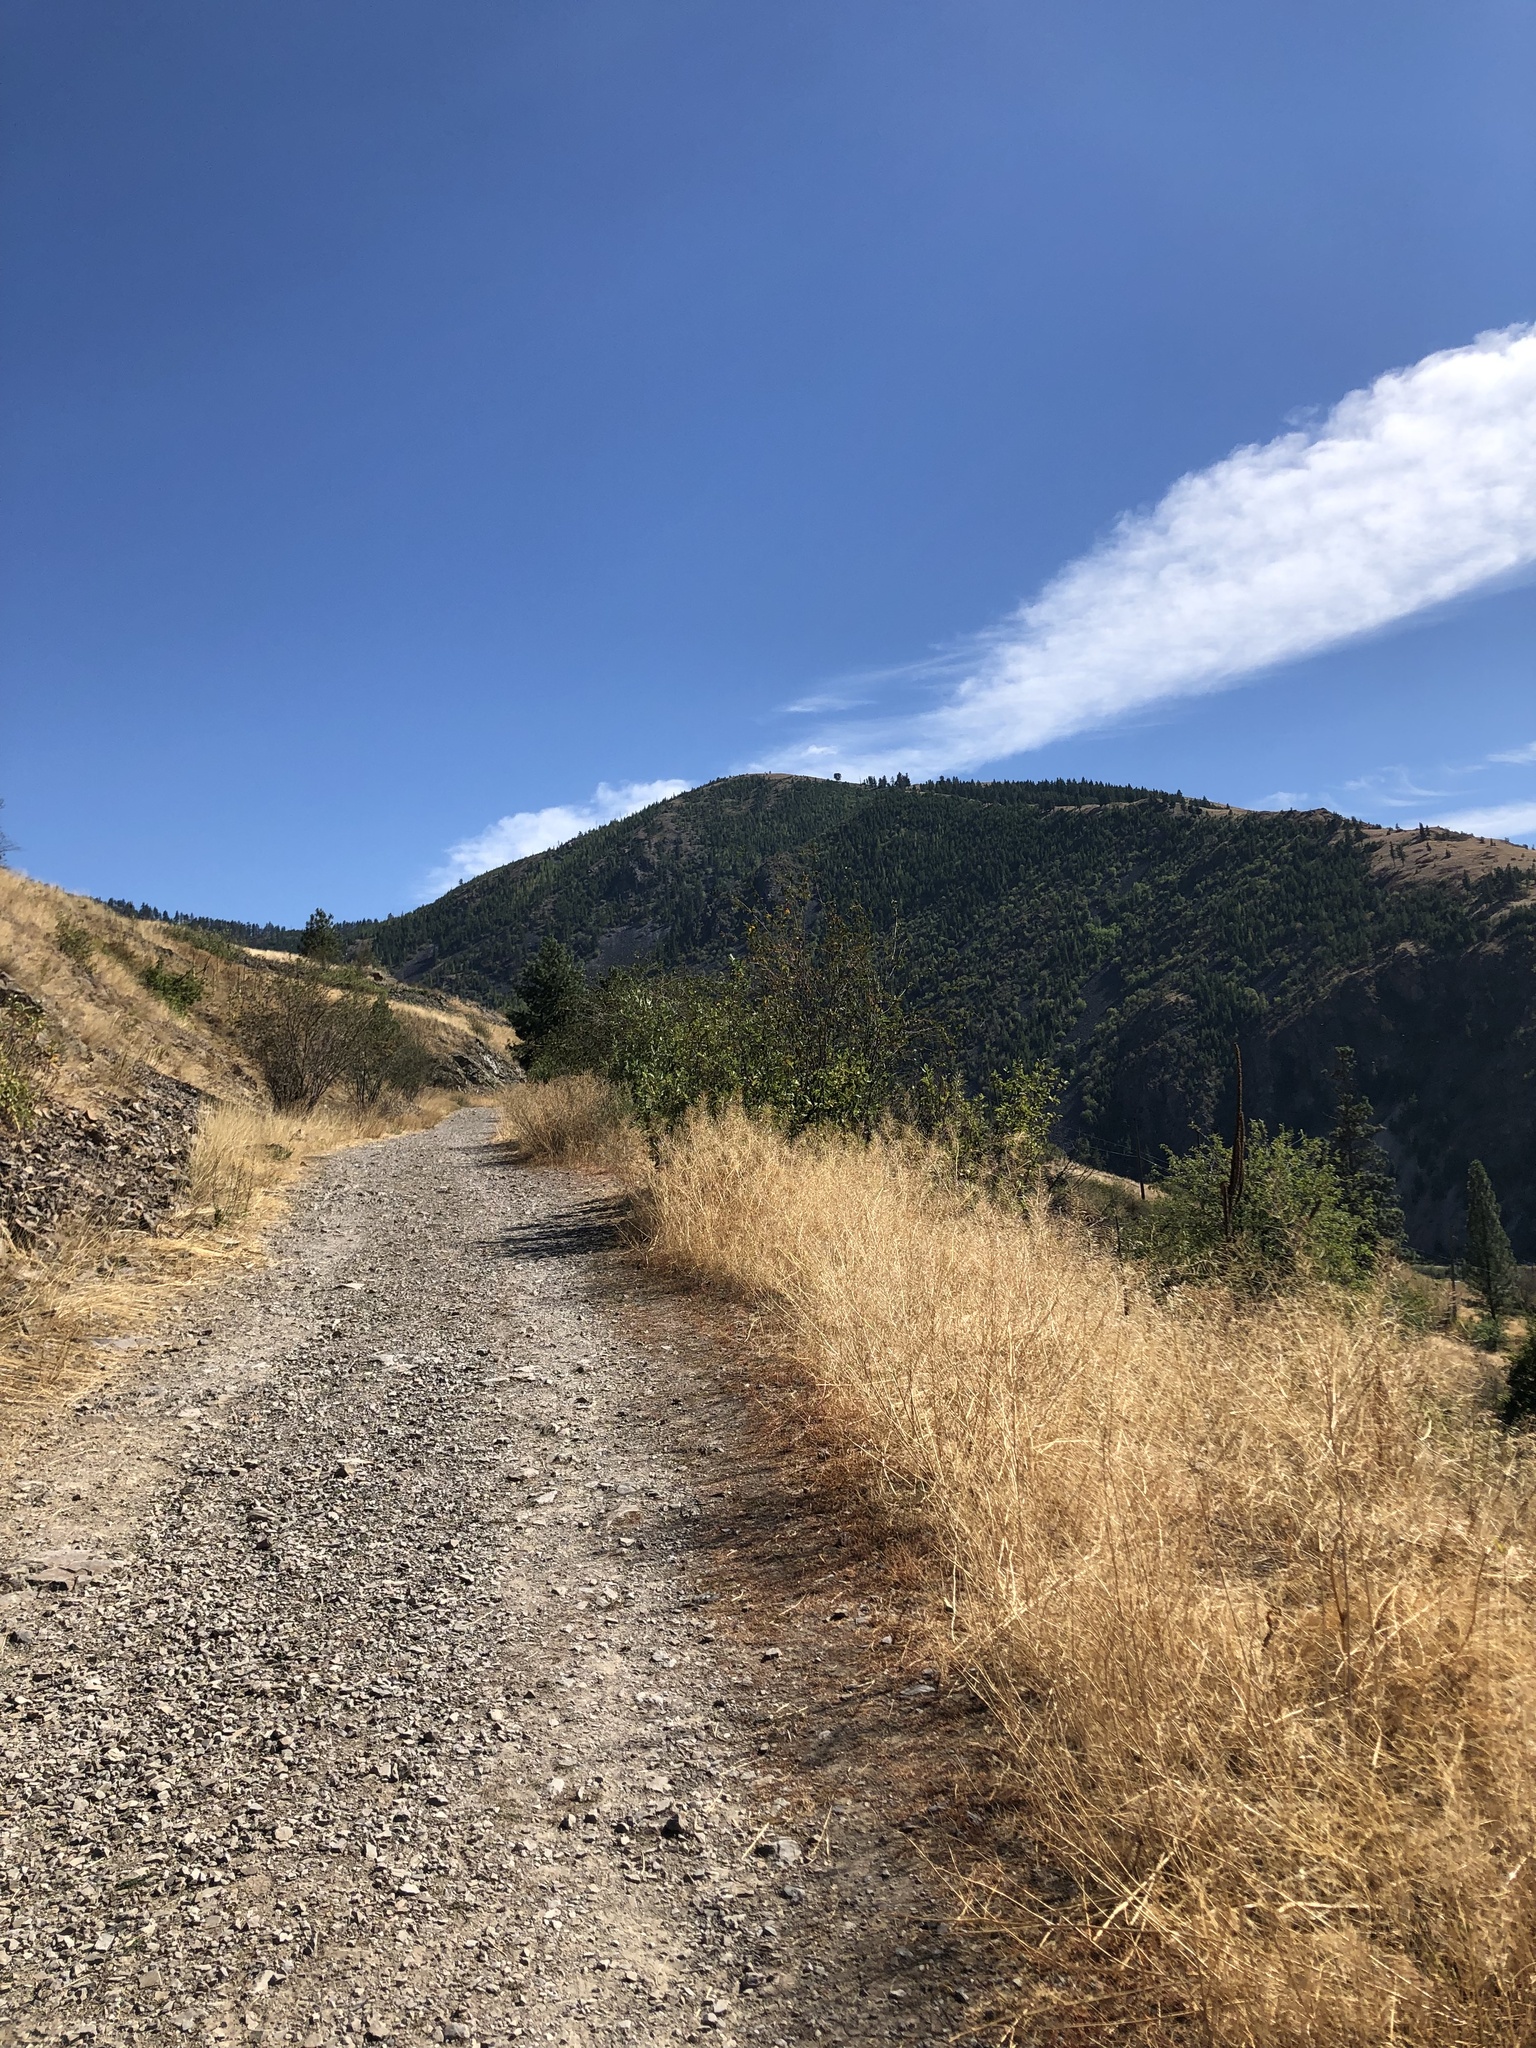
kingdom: Plantae
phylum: Tracheophyta
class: Magnoliopsida
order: Saxifragales
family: Grossulariaceae
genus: Ribes
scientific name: Ribes cereum
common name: Wax currant
